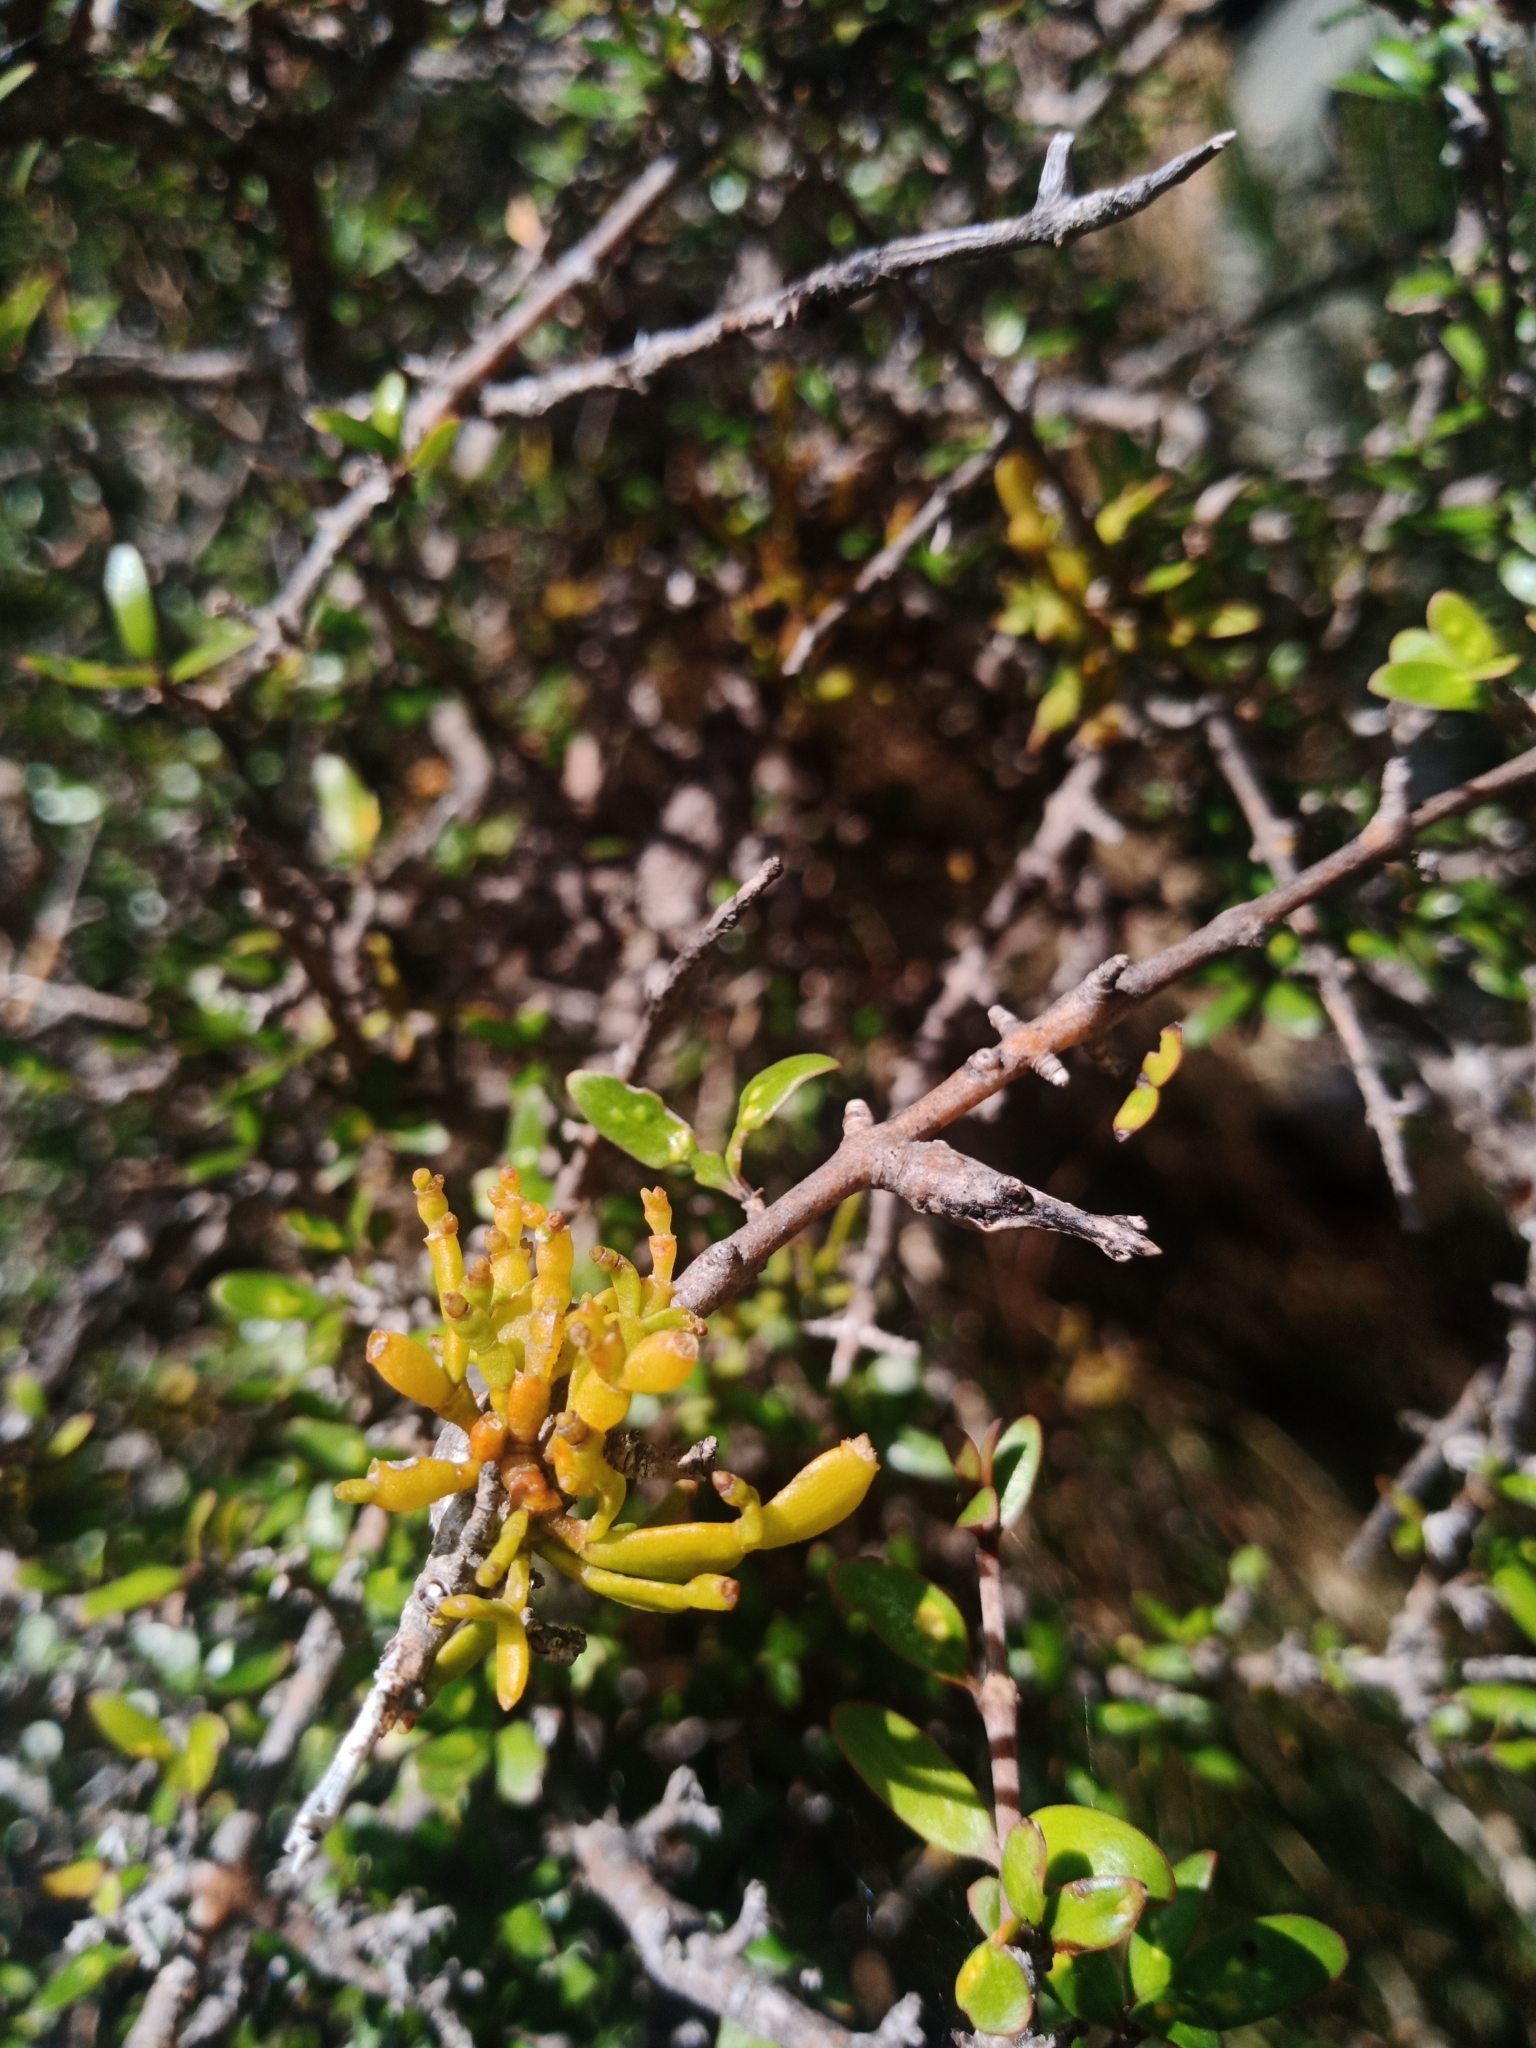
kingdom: Plantae
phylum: Tracheophyta
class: Magnoliopsida
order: Santalales
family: Viscaceae
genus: Korthalsella
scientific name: Korthalsella lindsayi
